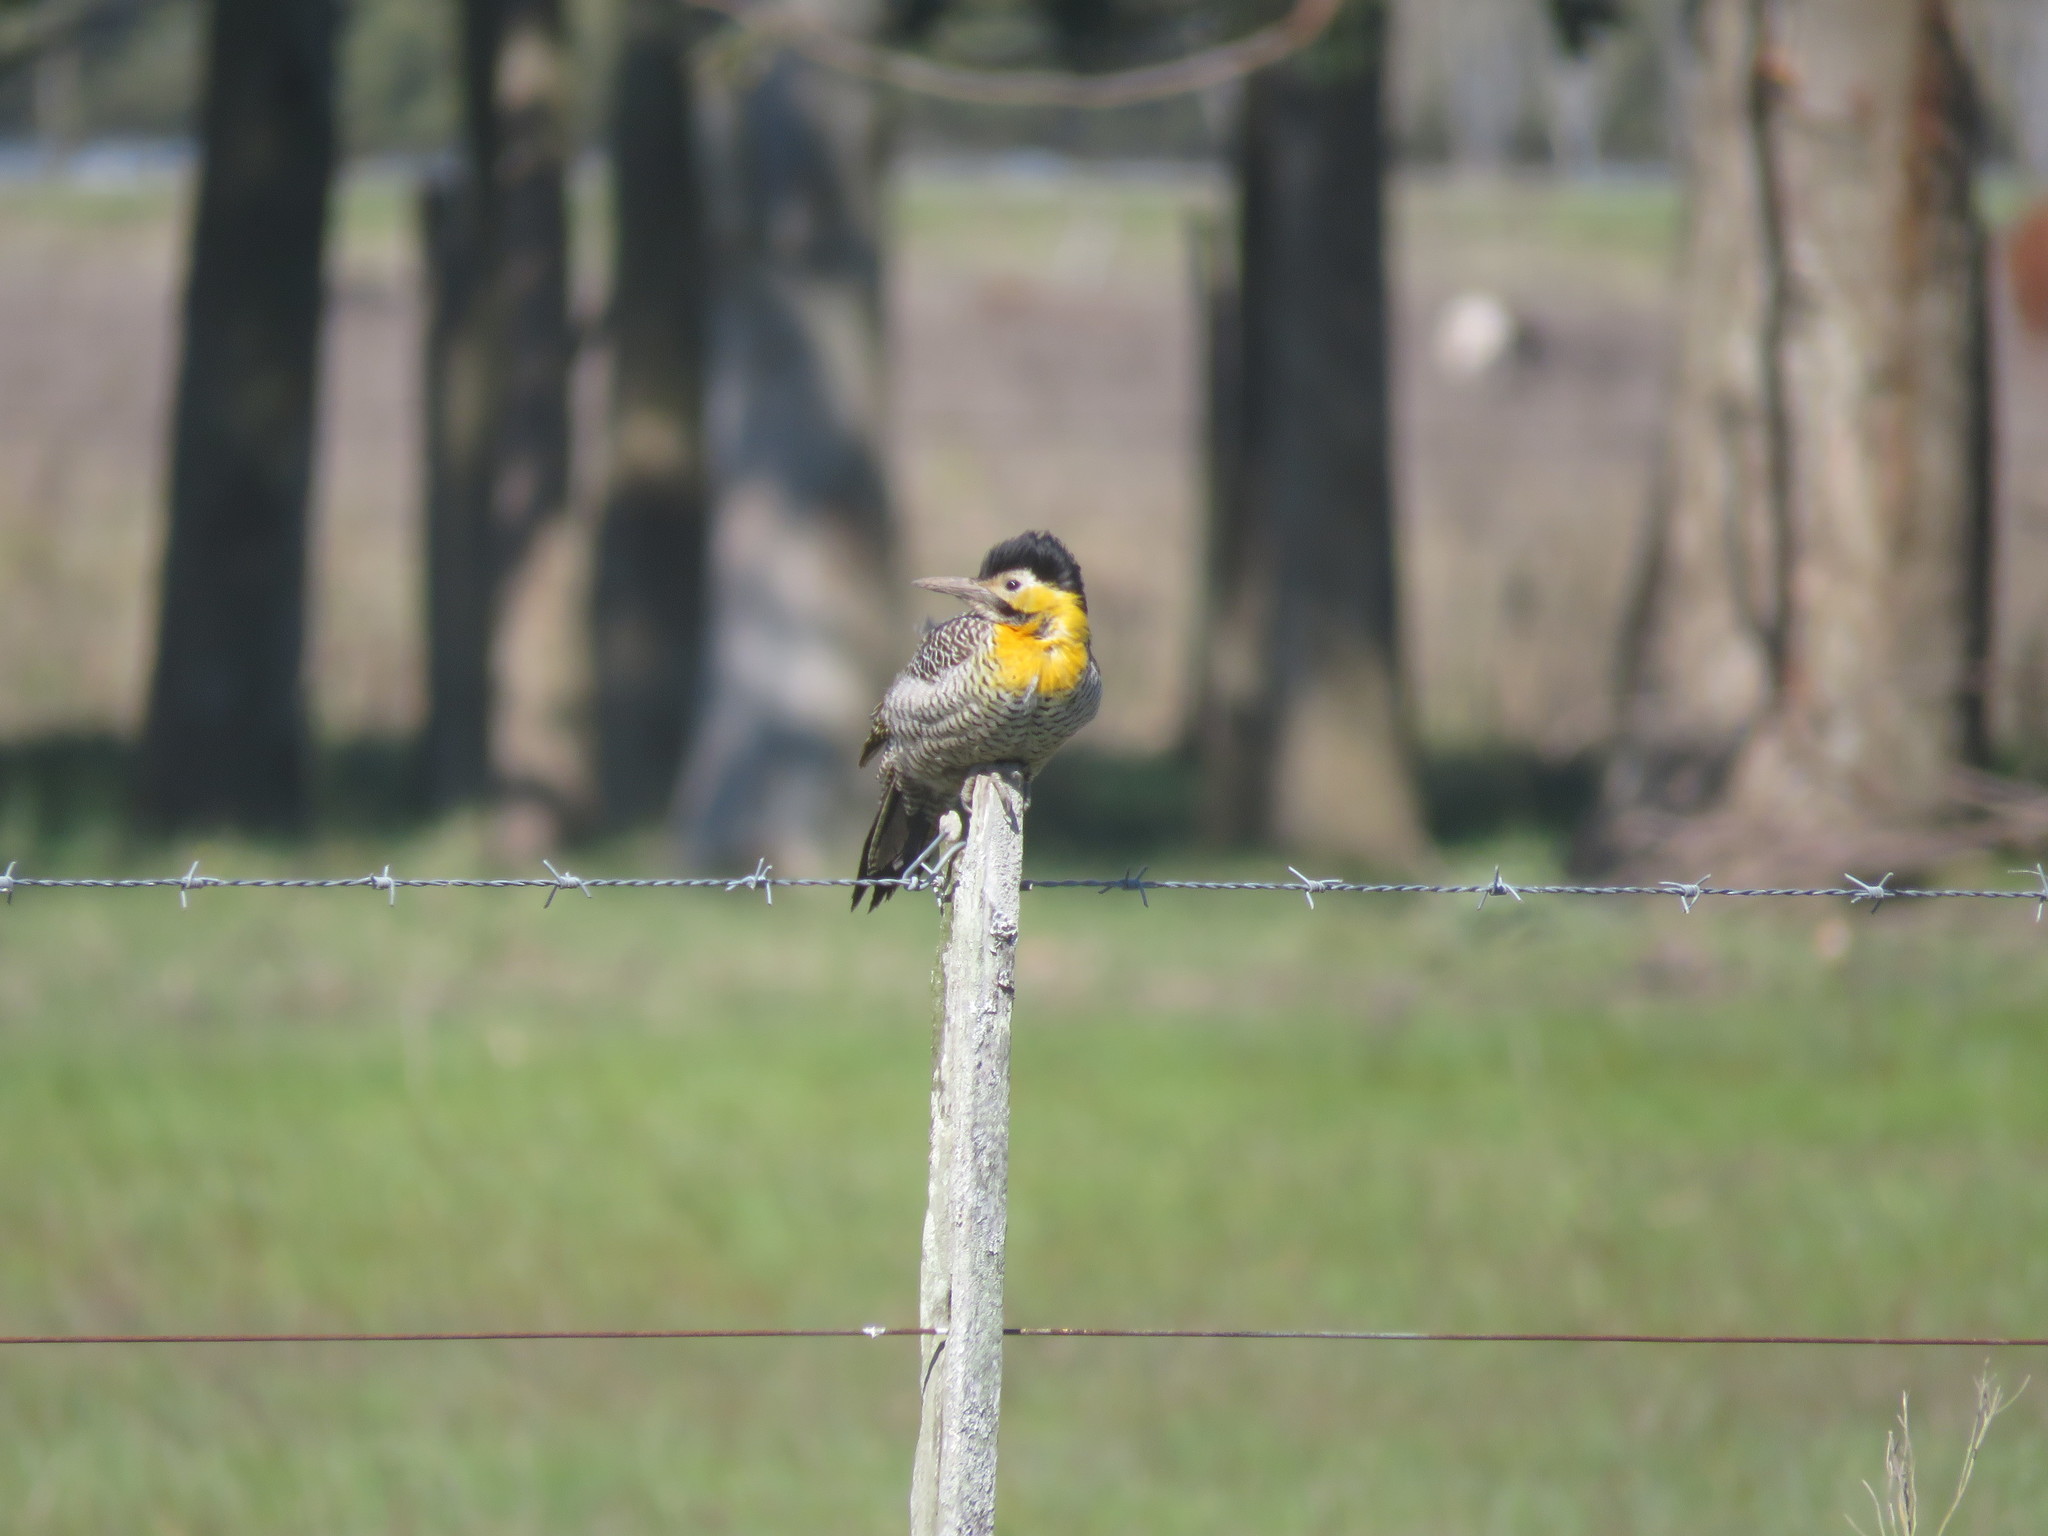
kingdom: Animalia
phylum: Chordata
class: Aves
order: Piciformes
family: Picidae
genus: Colaptes
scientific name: Colaptes campestris
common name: Campo flicker
